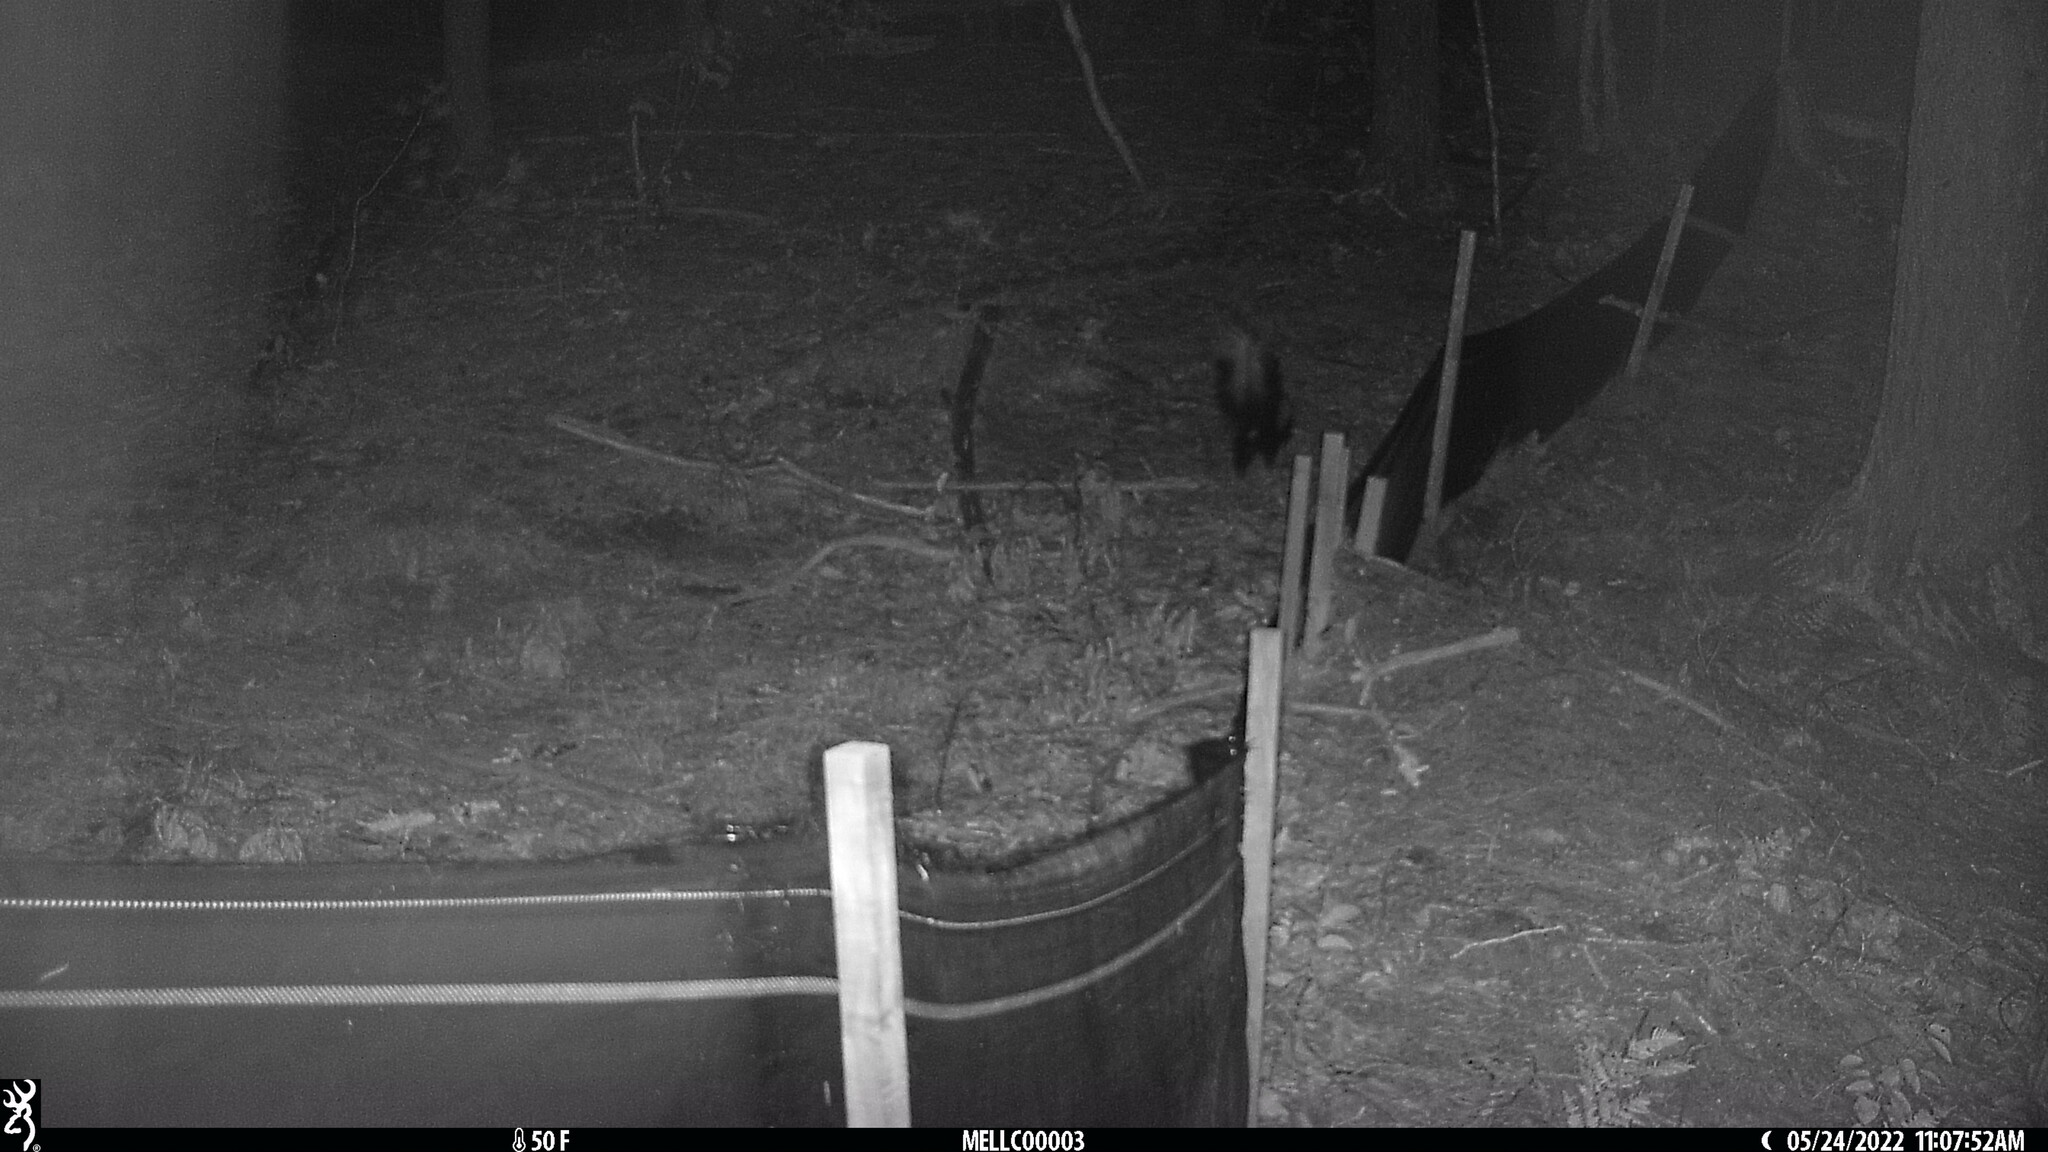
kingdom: Animalia
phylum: Chordata
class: Mammalia
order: Carnivora
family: Mephitidae
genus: Mephitis
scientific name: Mephitis mephitis
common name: Striped skunk
